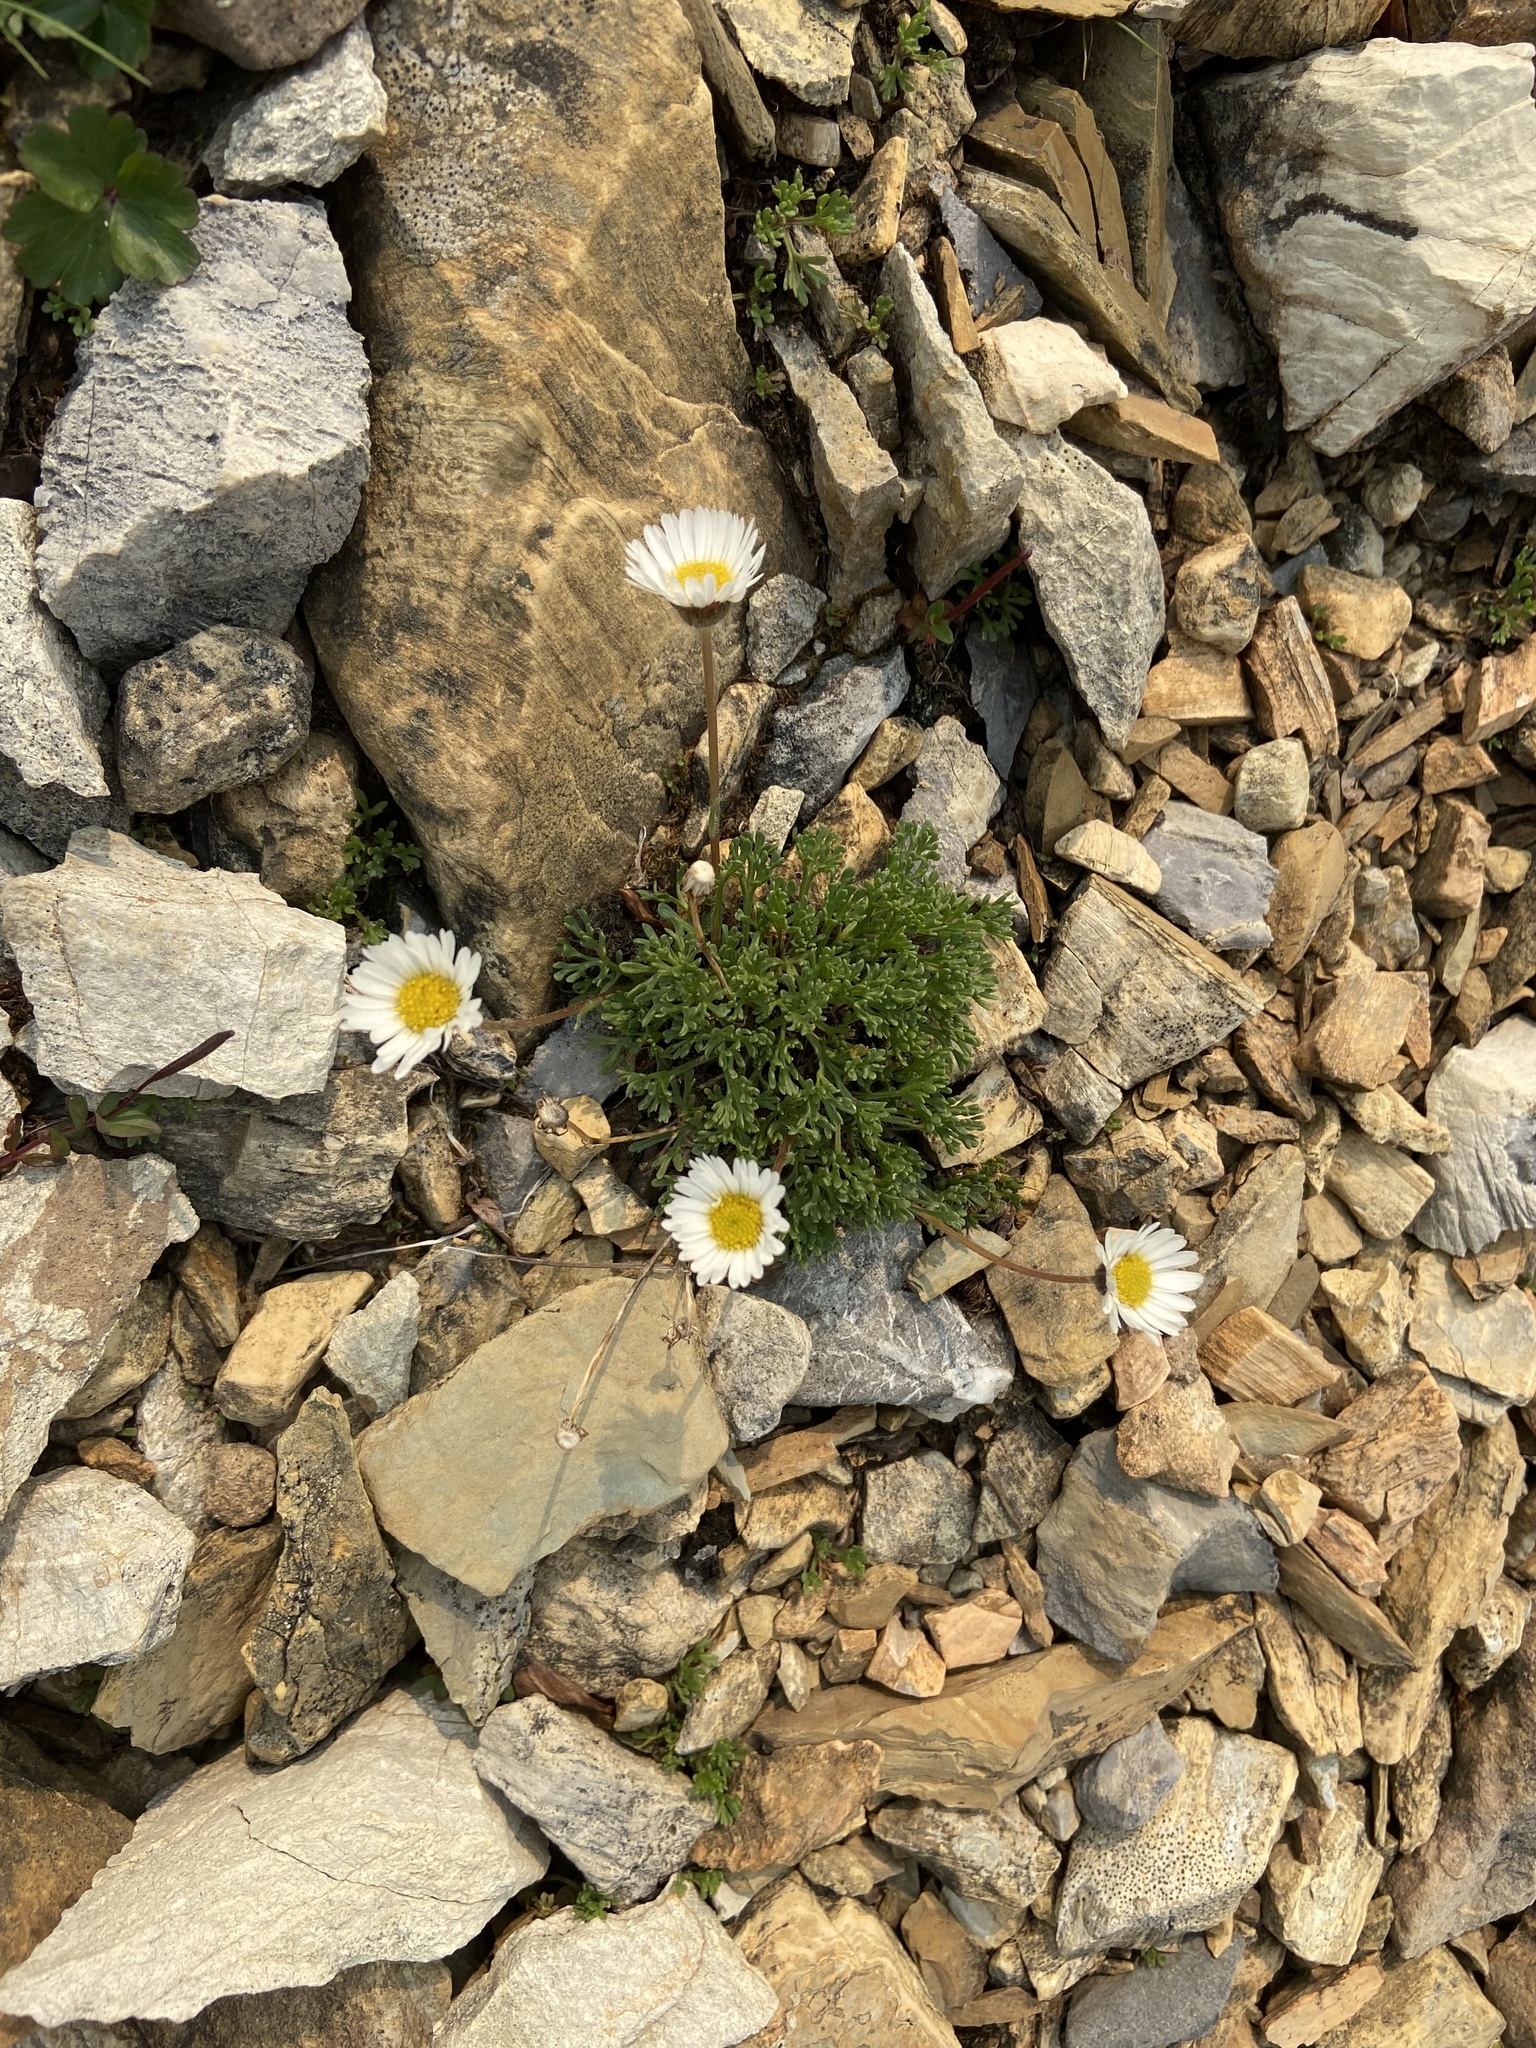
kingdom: Plantae
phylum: Tracheophyta
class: Magnoliopsida
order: Asterales
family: Asteraceae
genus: Erigeron
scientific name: Erigeron compositus
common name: Dwarf mountain fleabane
